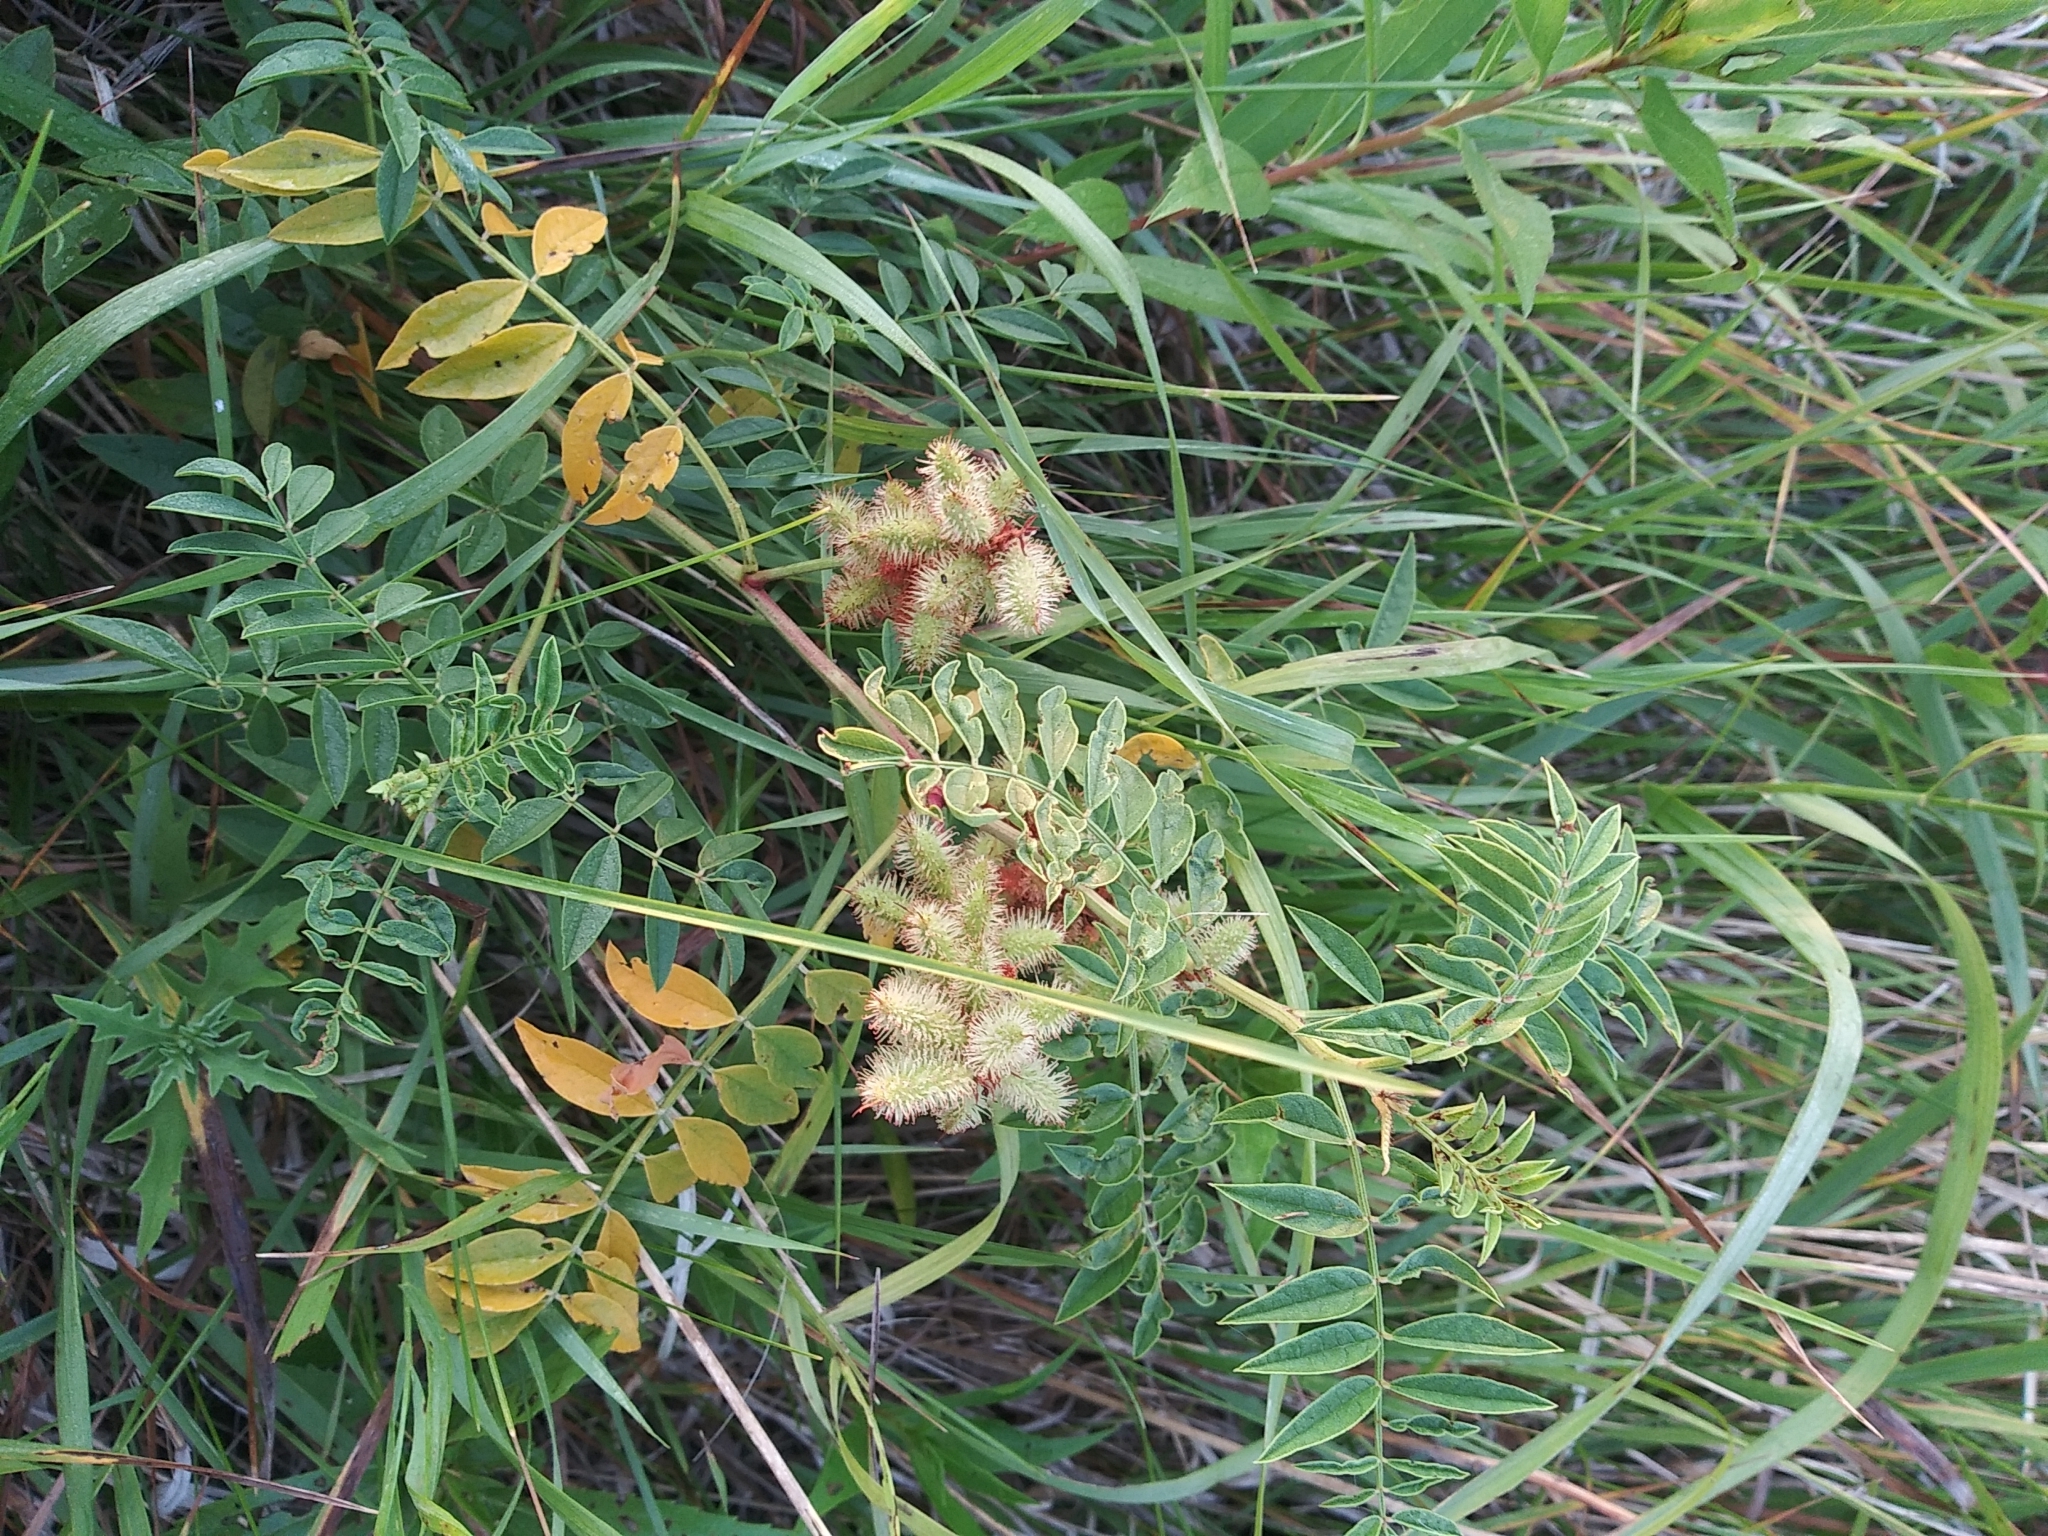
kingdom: Plantae
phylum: Tracheophyta
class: Magnoliopsida
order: Fabales
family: Fabaceae
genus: Glycyrrhiza
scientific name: Glycyrrhiza lepidota
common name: American liquorice
